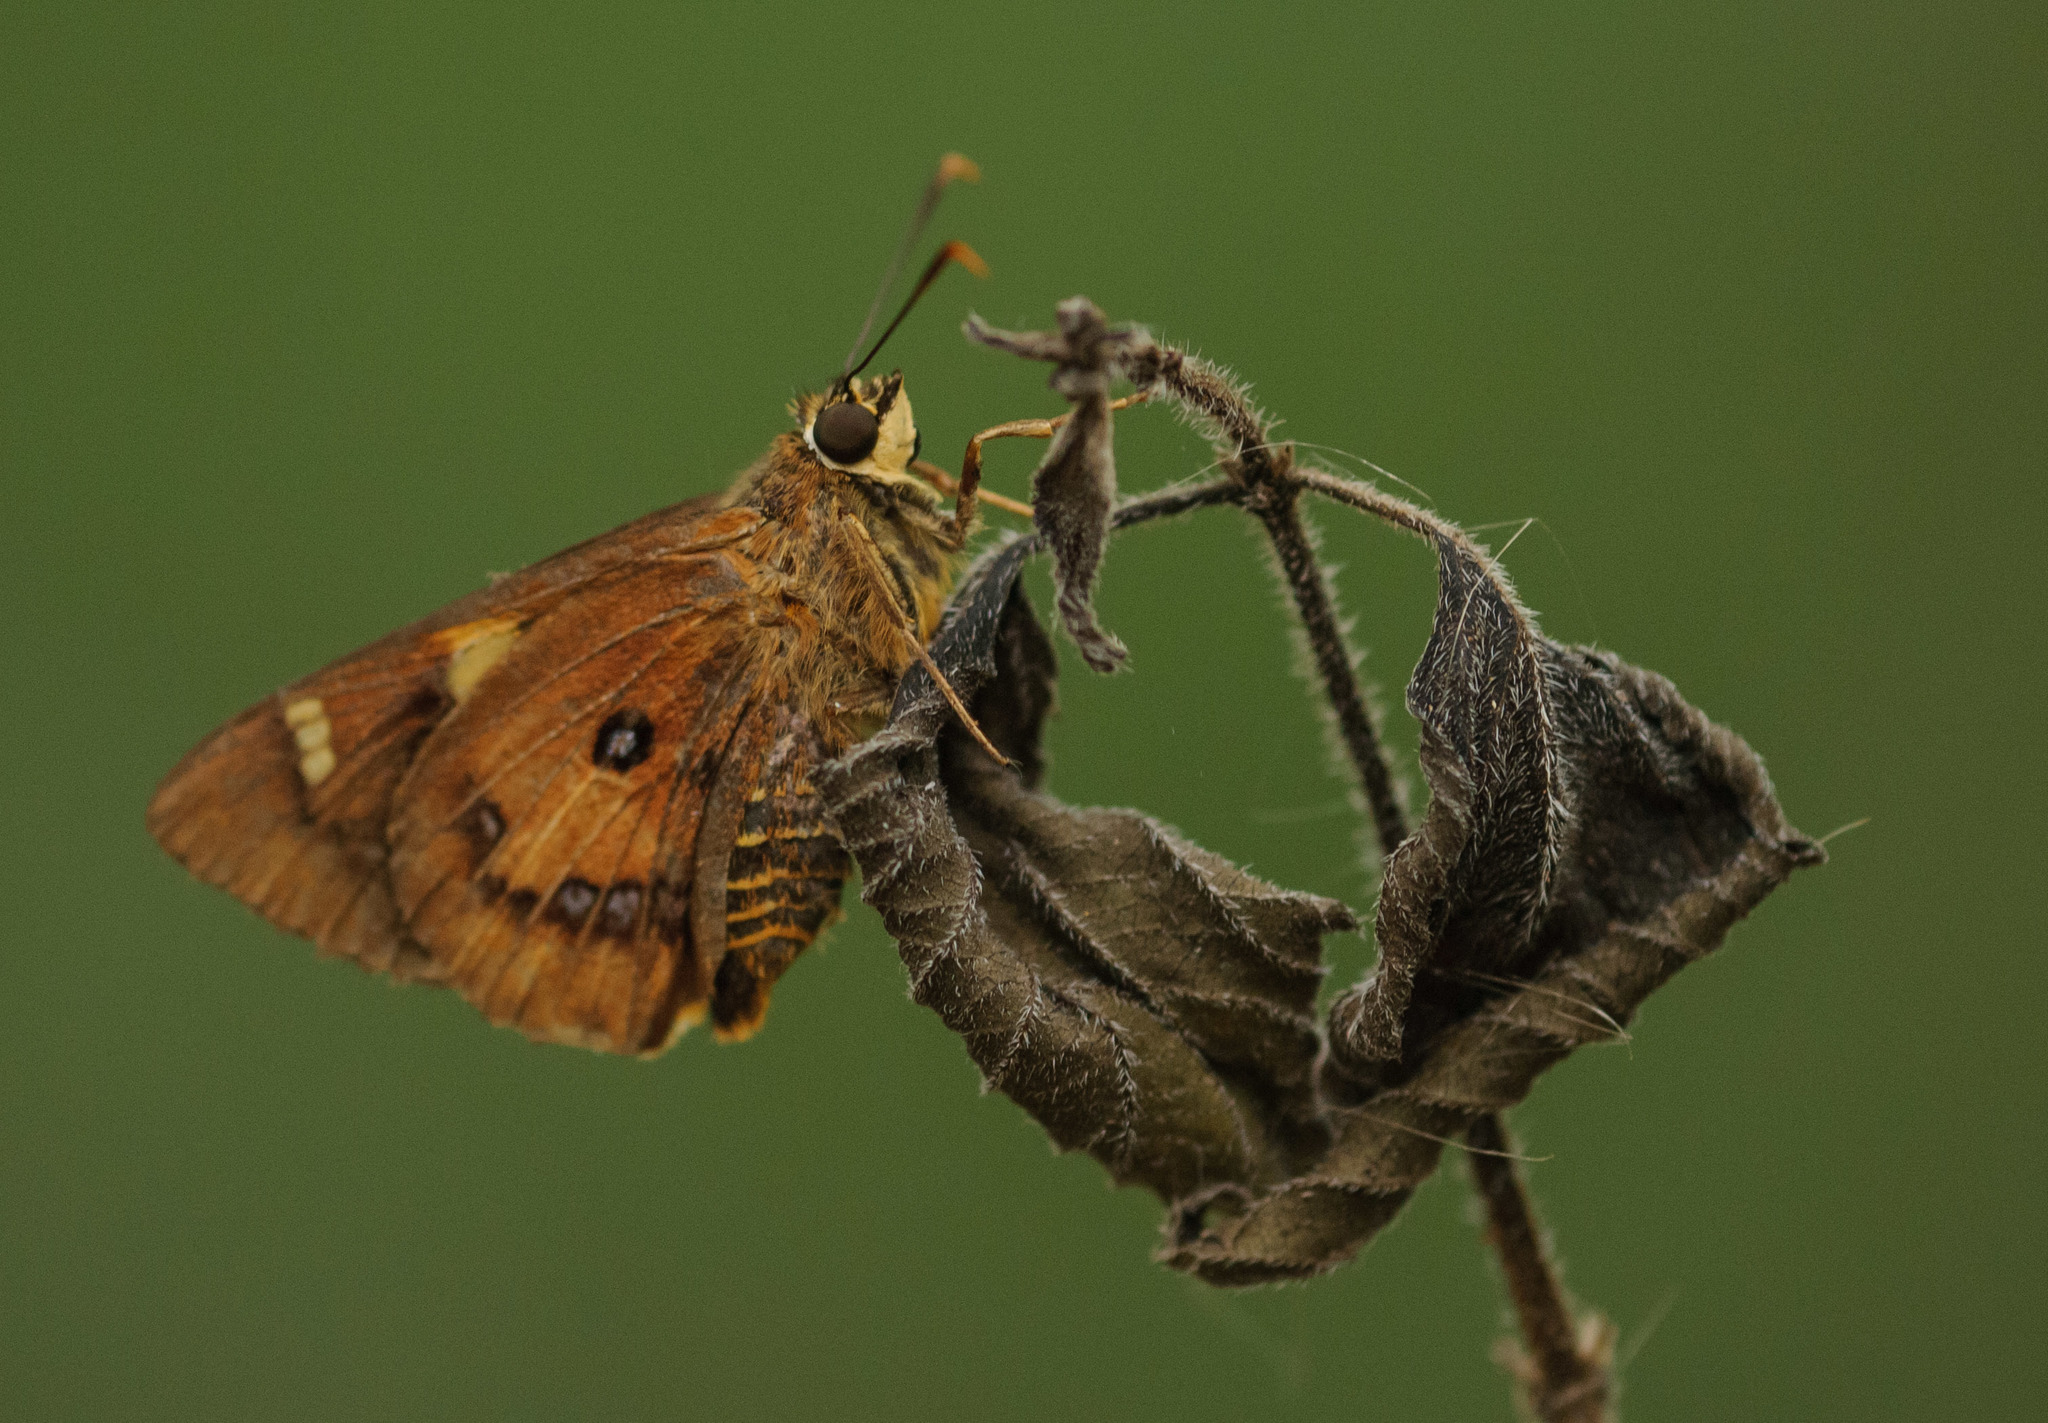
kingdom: Animalia
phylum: Arthropoda
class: Insecta
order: Lepidoptera
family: Hesperiidae
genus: Trapezites
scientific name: Trapezites symmomus
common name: Splendid ochre
